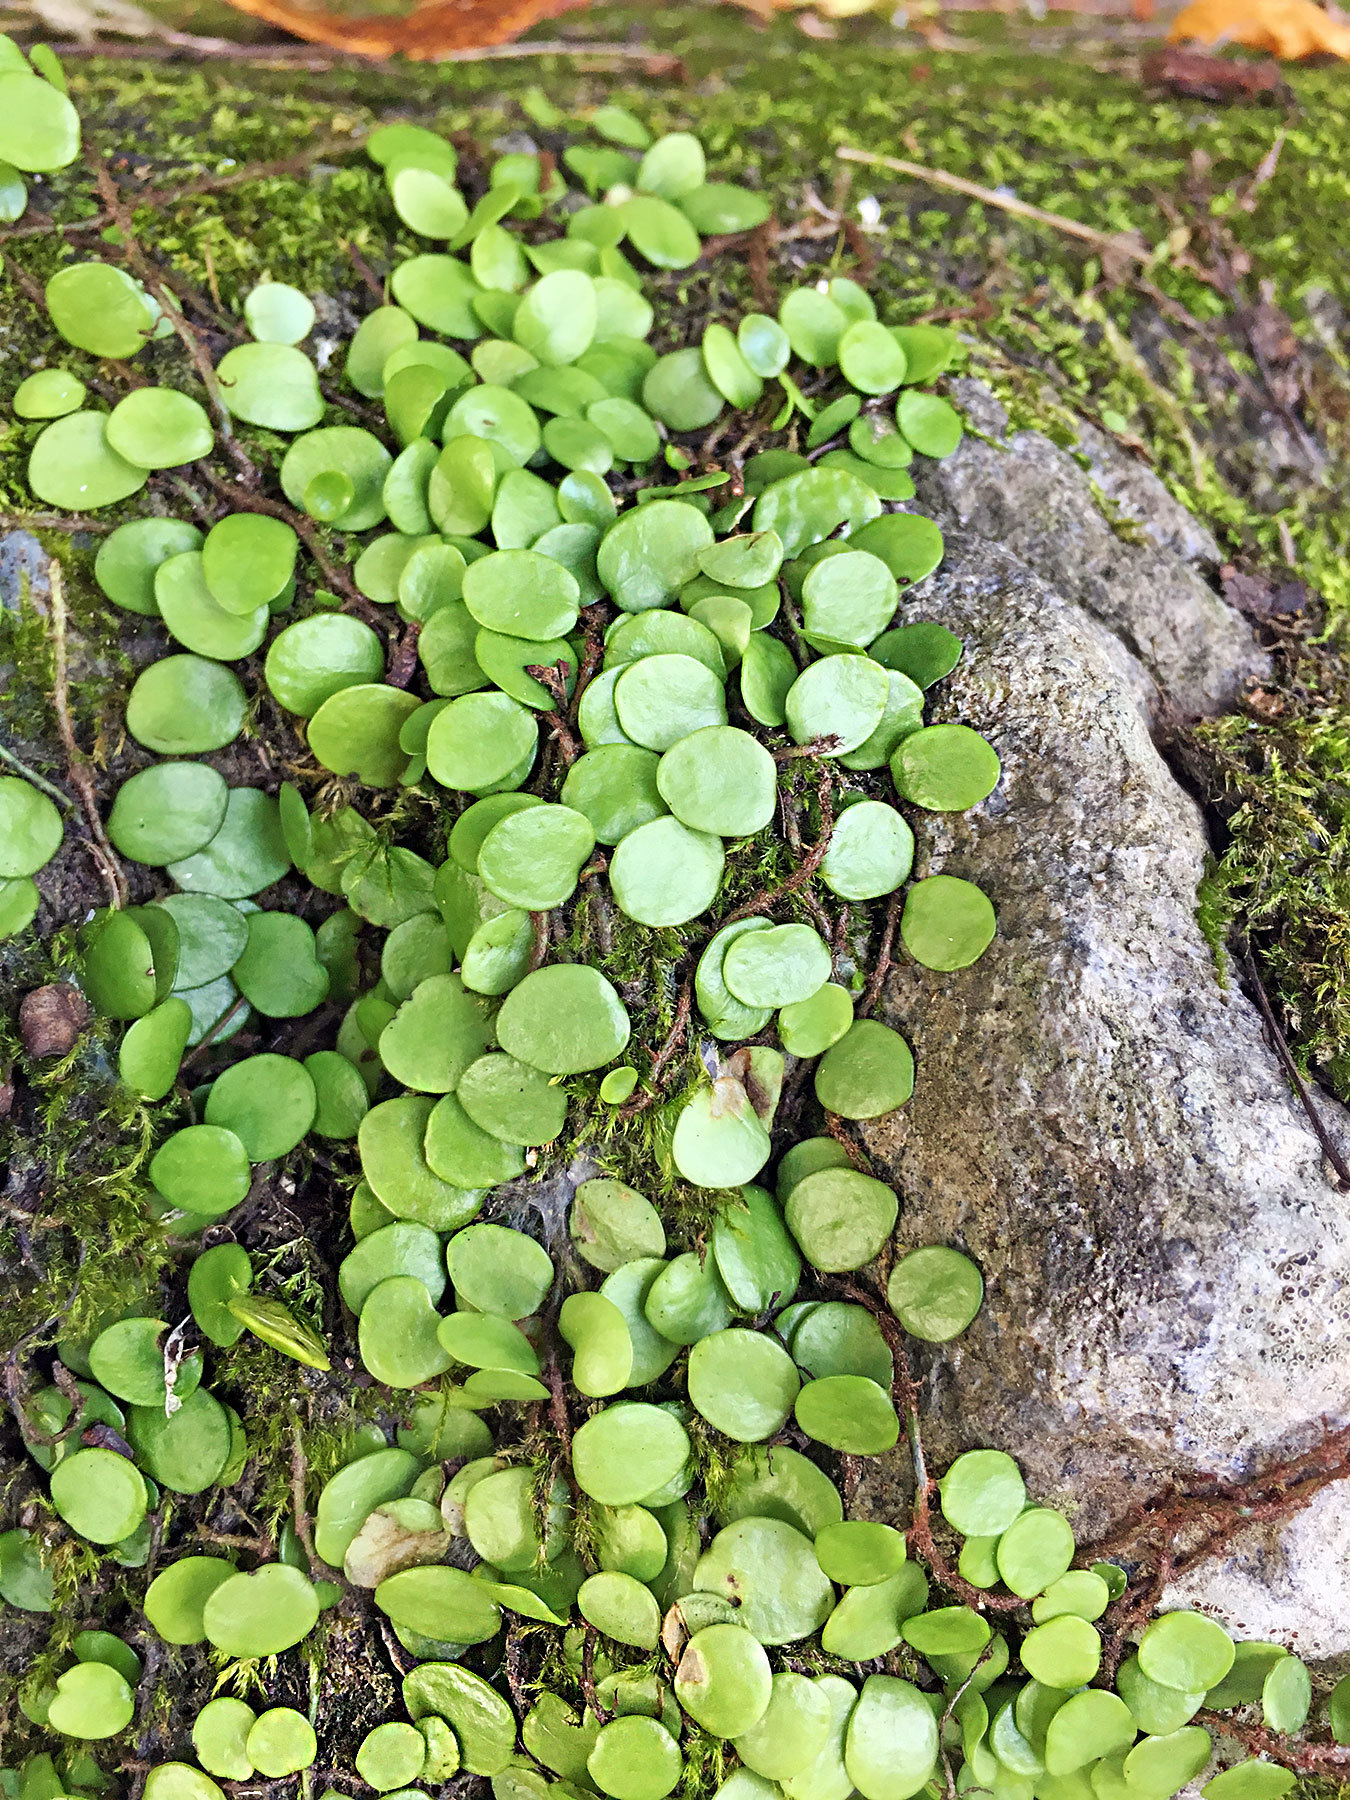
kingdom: Plantae
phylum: Tracheophyta
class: Polypodiopsida
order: Polypodiales
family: Polypodiaceae
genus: Lepisorus
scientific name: Lepisorus microphyllus
